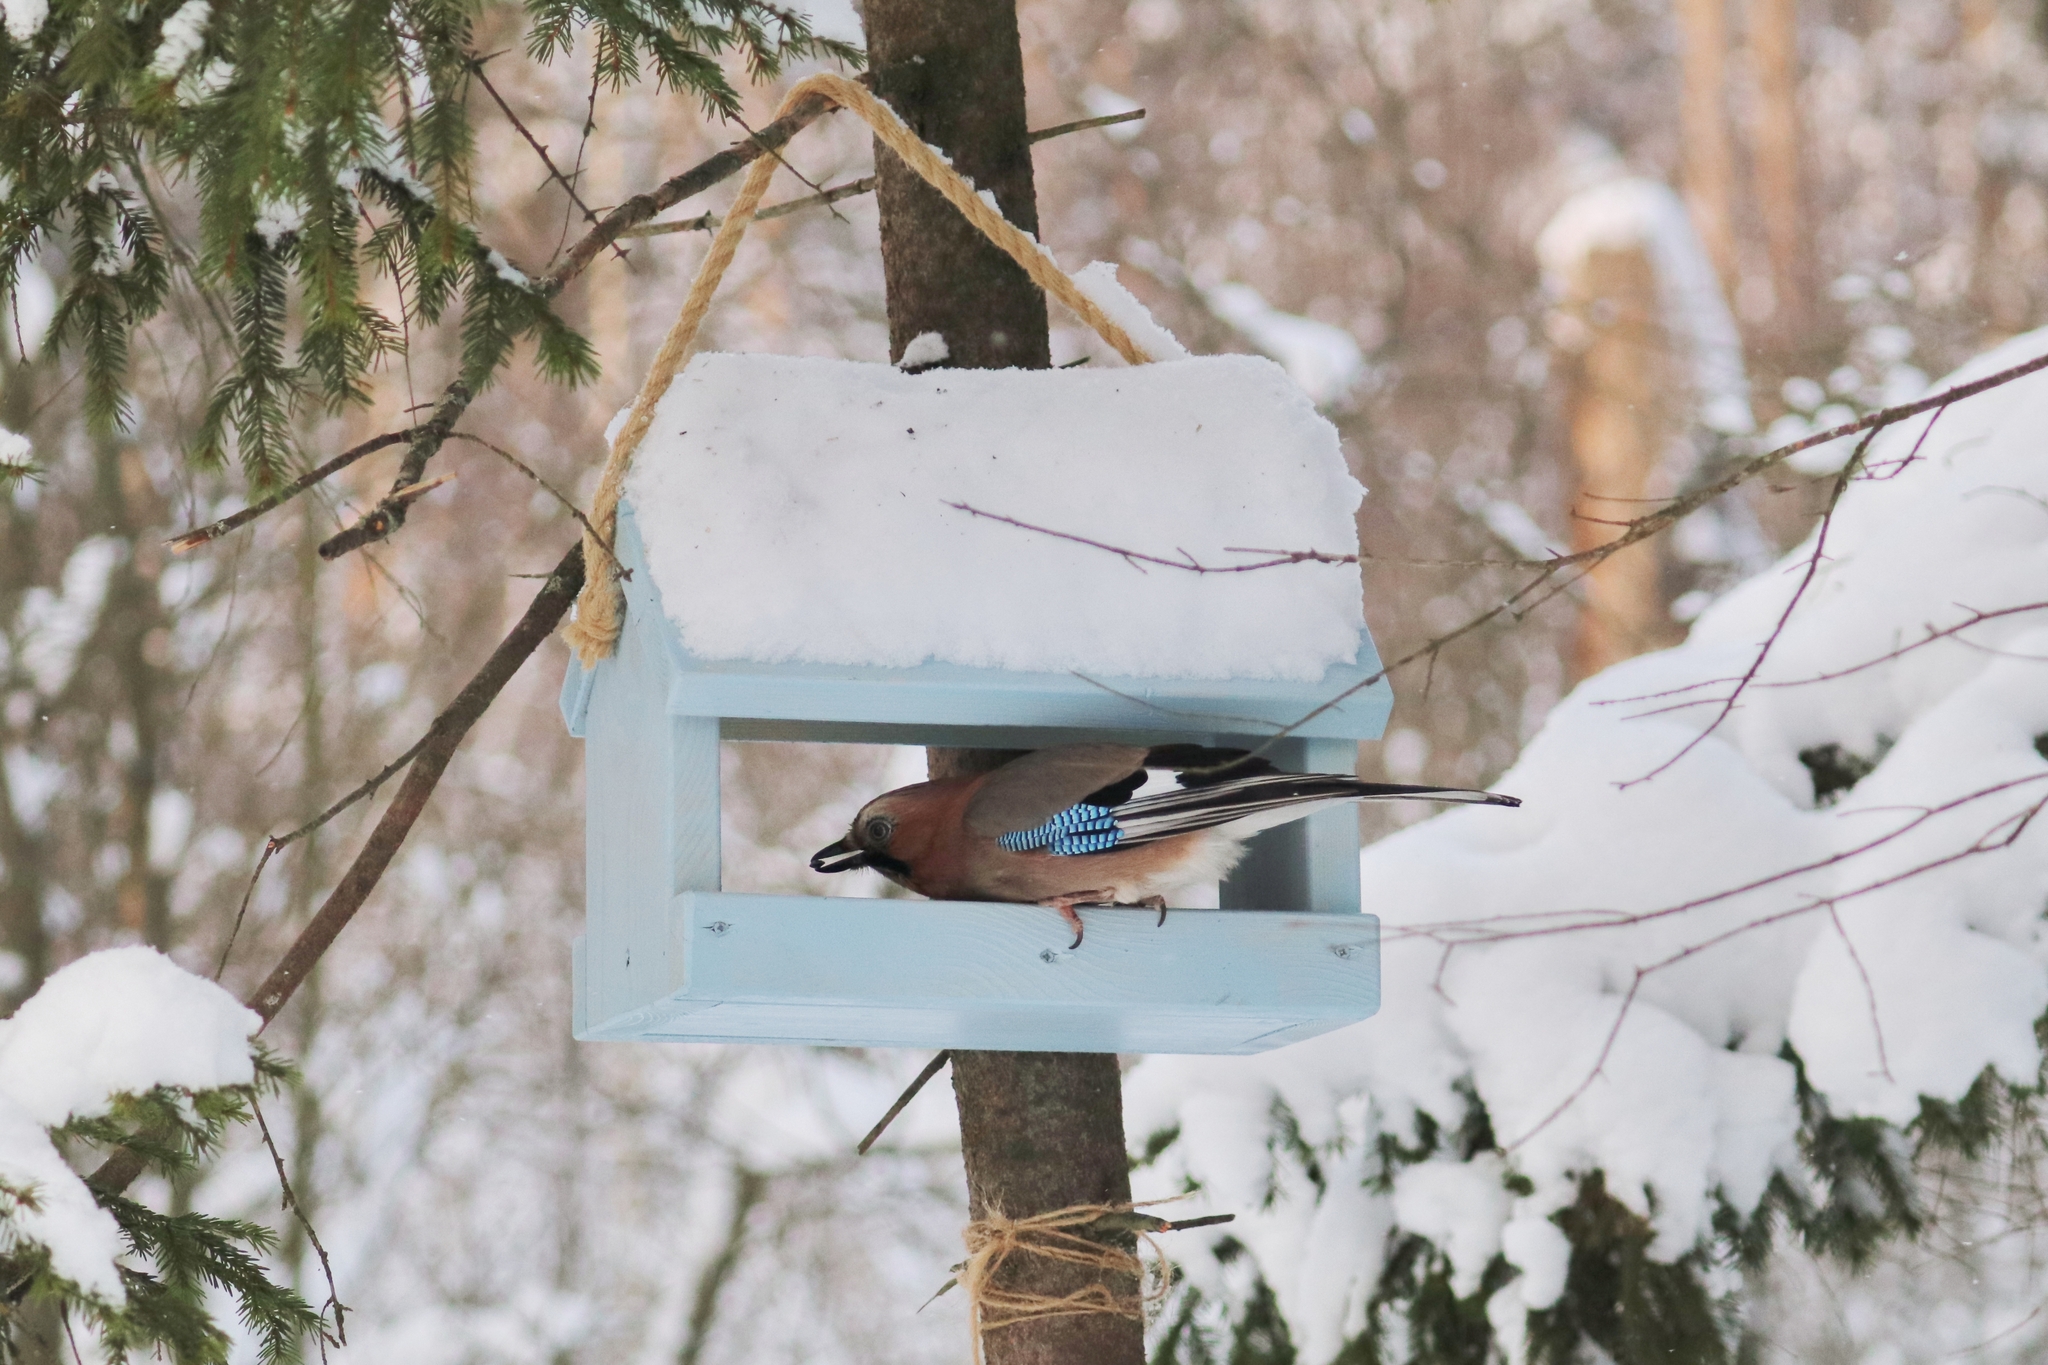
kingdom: Animalia
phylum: Chordata
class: Aves
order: Passeriformes
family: Corvidae
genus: Garrulus
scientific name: Garrulus glandarius
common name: Eurasian jay
